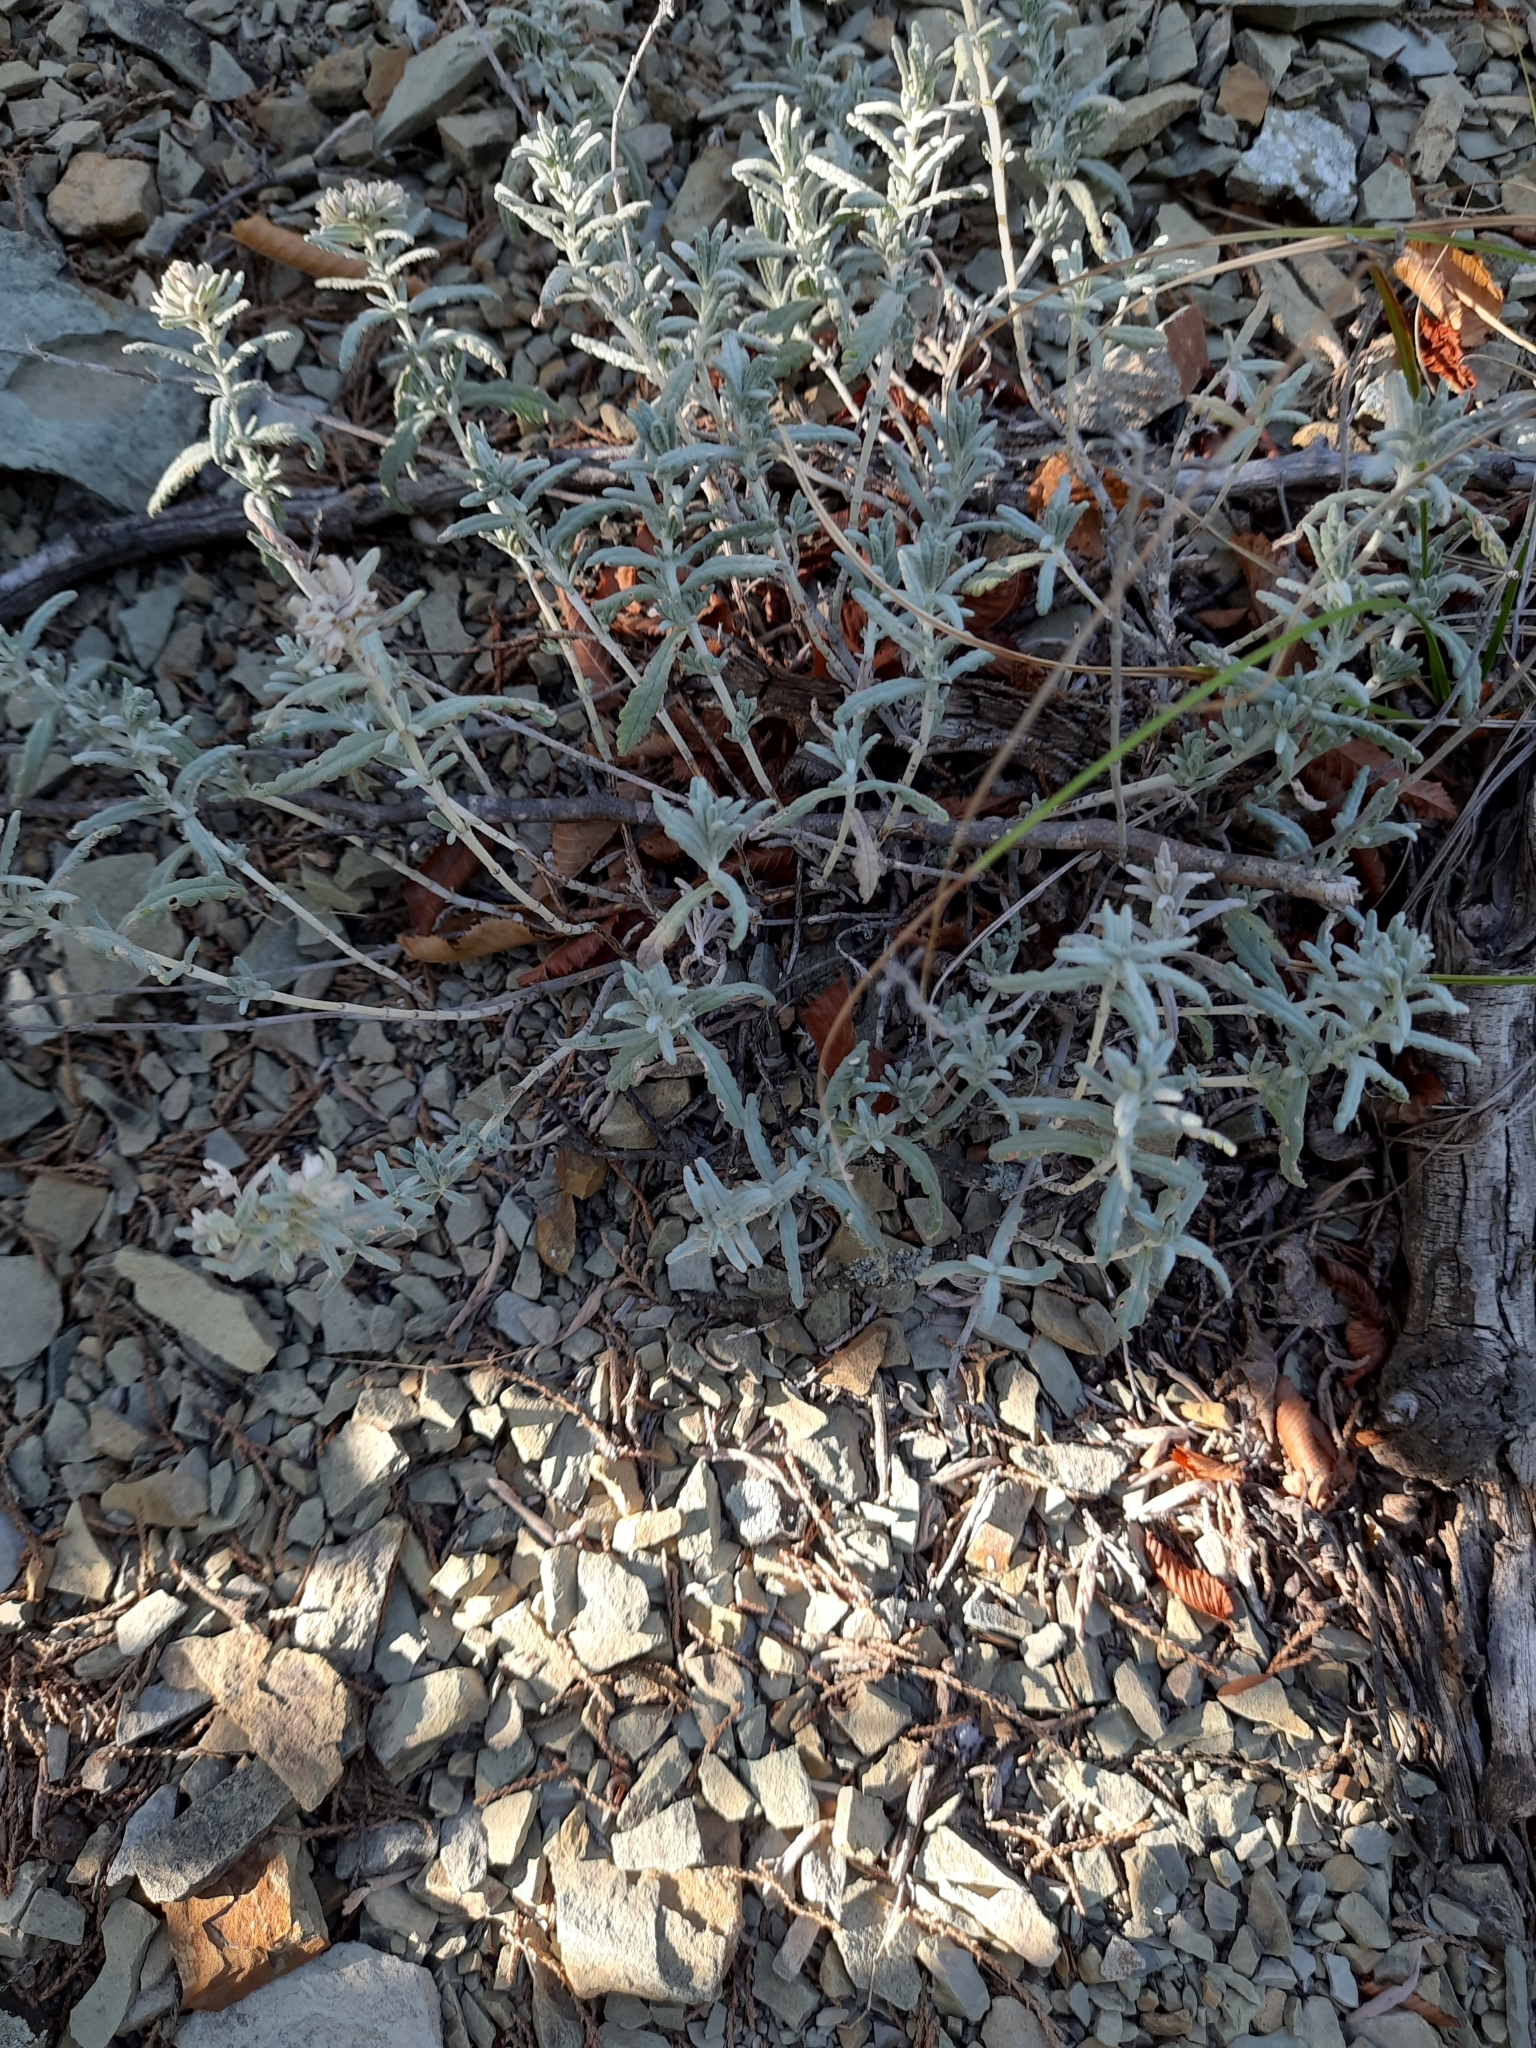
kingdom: Plantae
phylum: Tracheophyta
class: Magnoliopsida
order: Lamiales
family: Lamiaceae
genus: Teucrium
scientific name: Teucrium polium
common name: Poley
